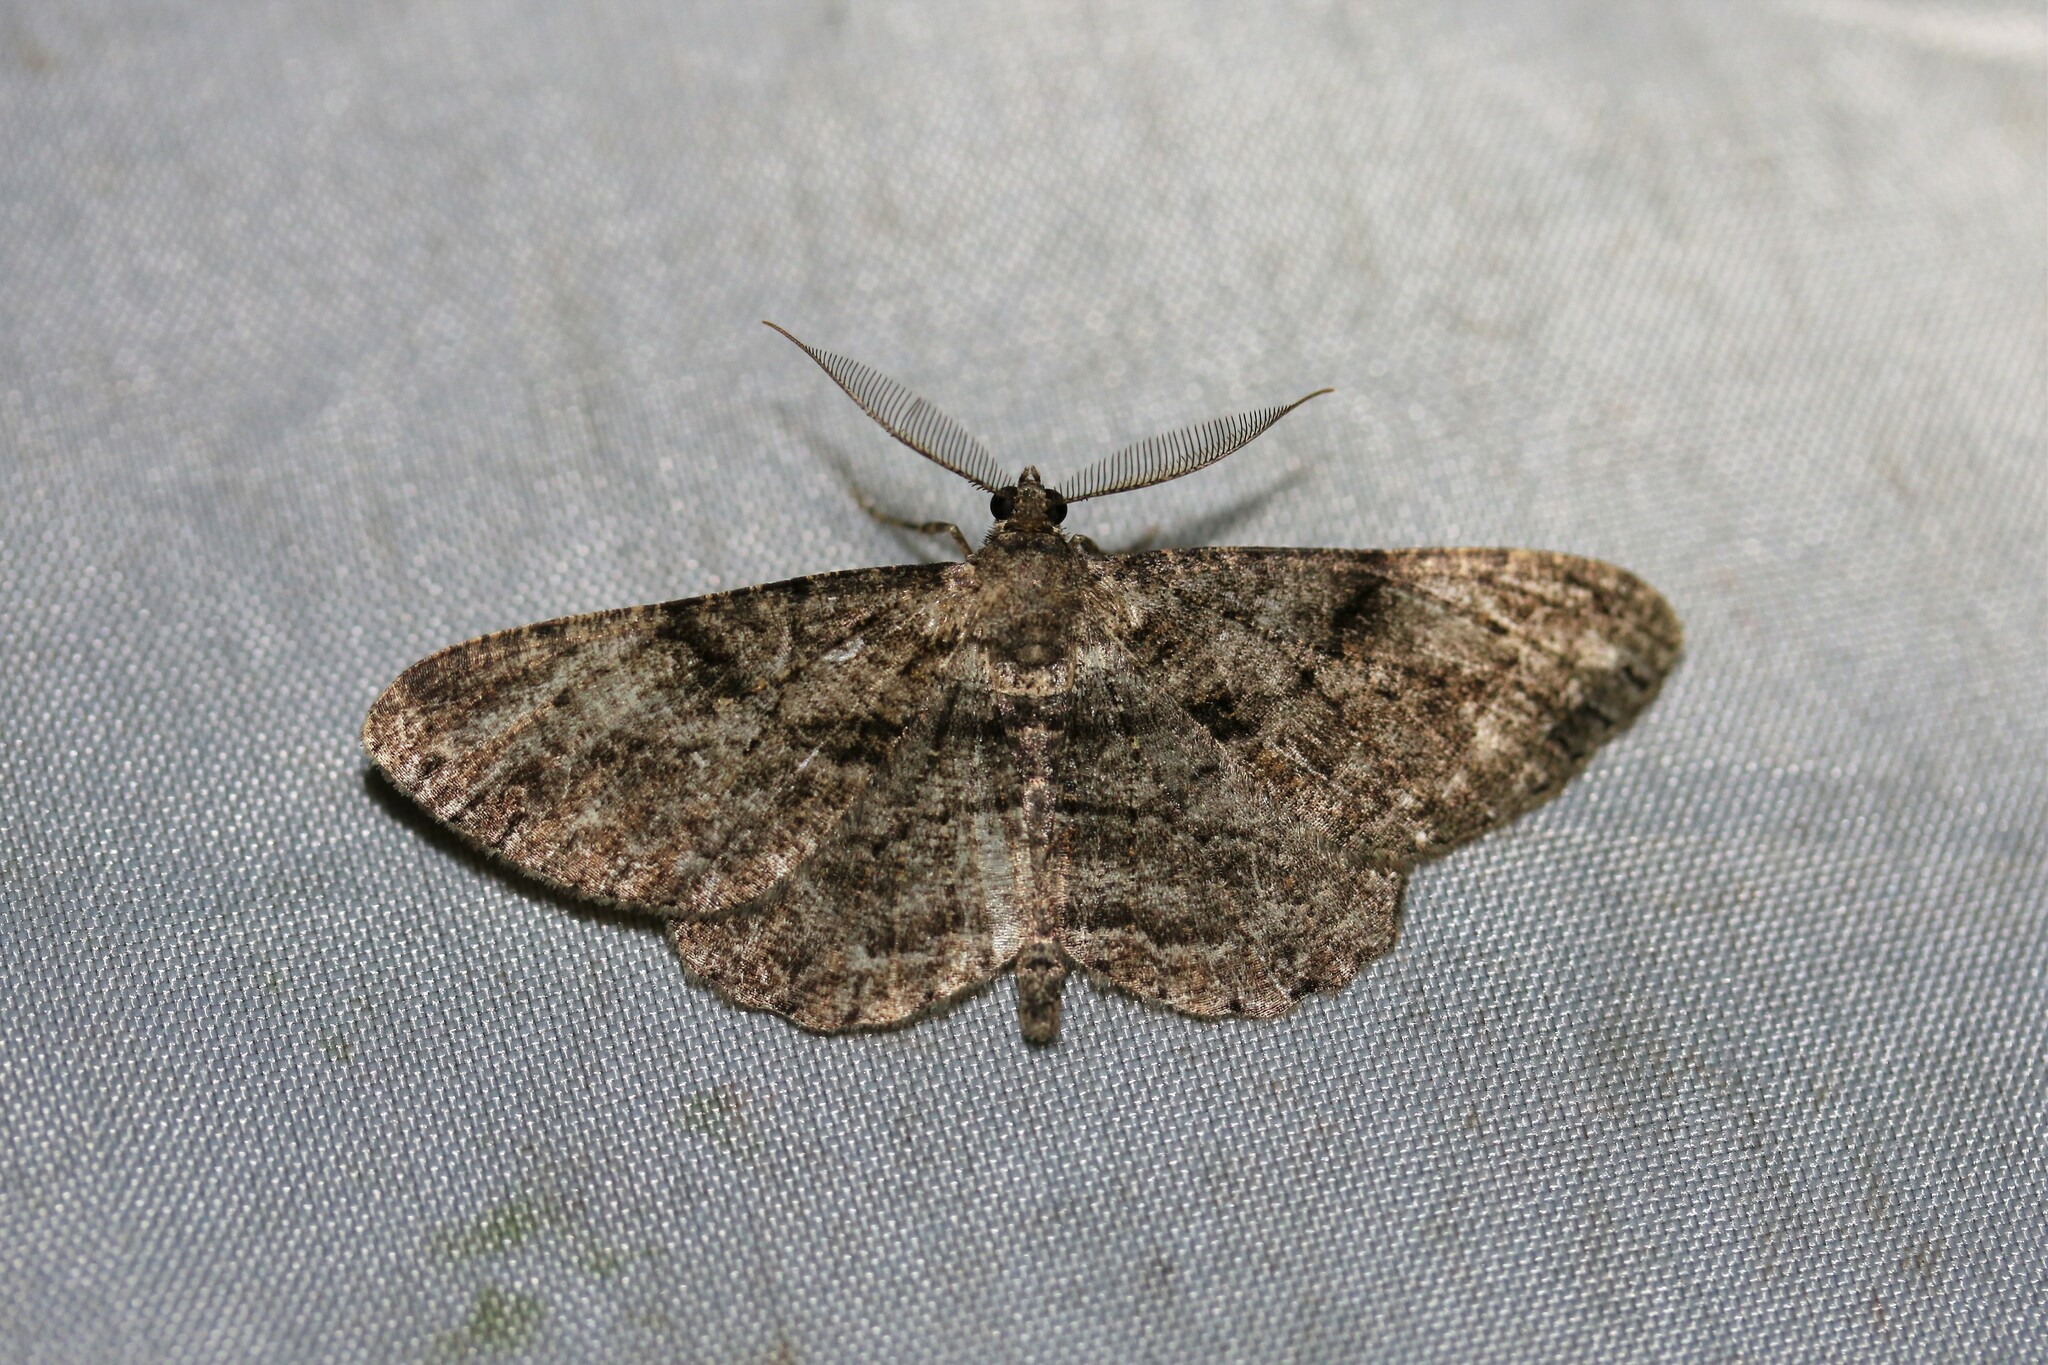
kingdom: Animalia
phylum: Arthropoda
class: Insecta
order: Lepidoptera
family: Geometridae
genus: Peribatodes
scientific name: Peribatodes rhomboidaria
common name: Willow beauty
